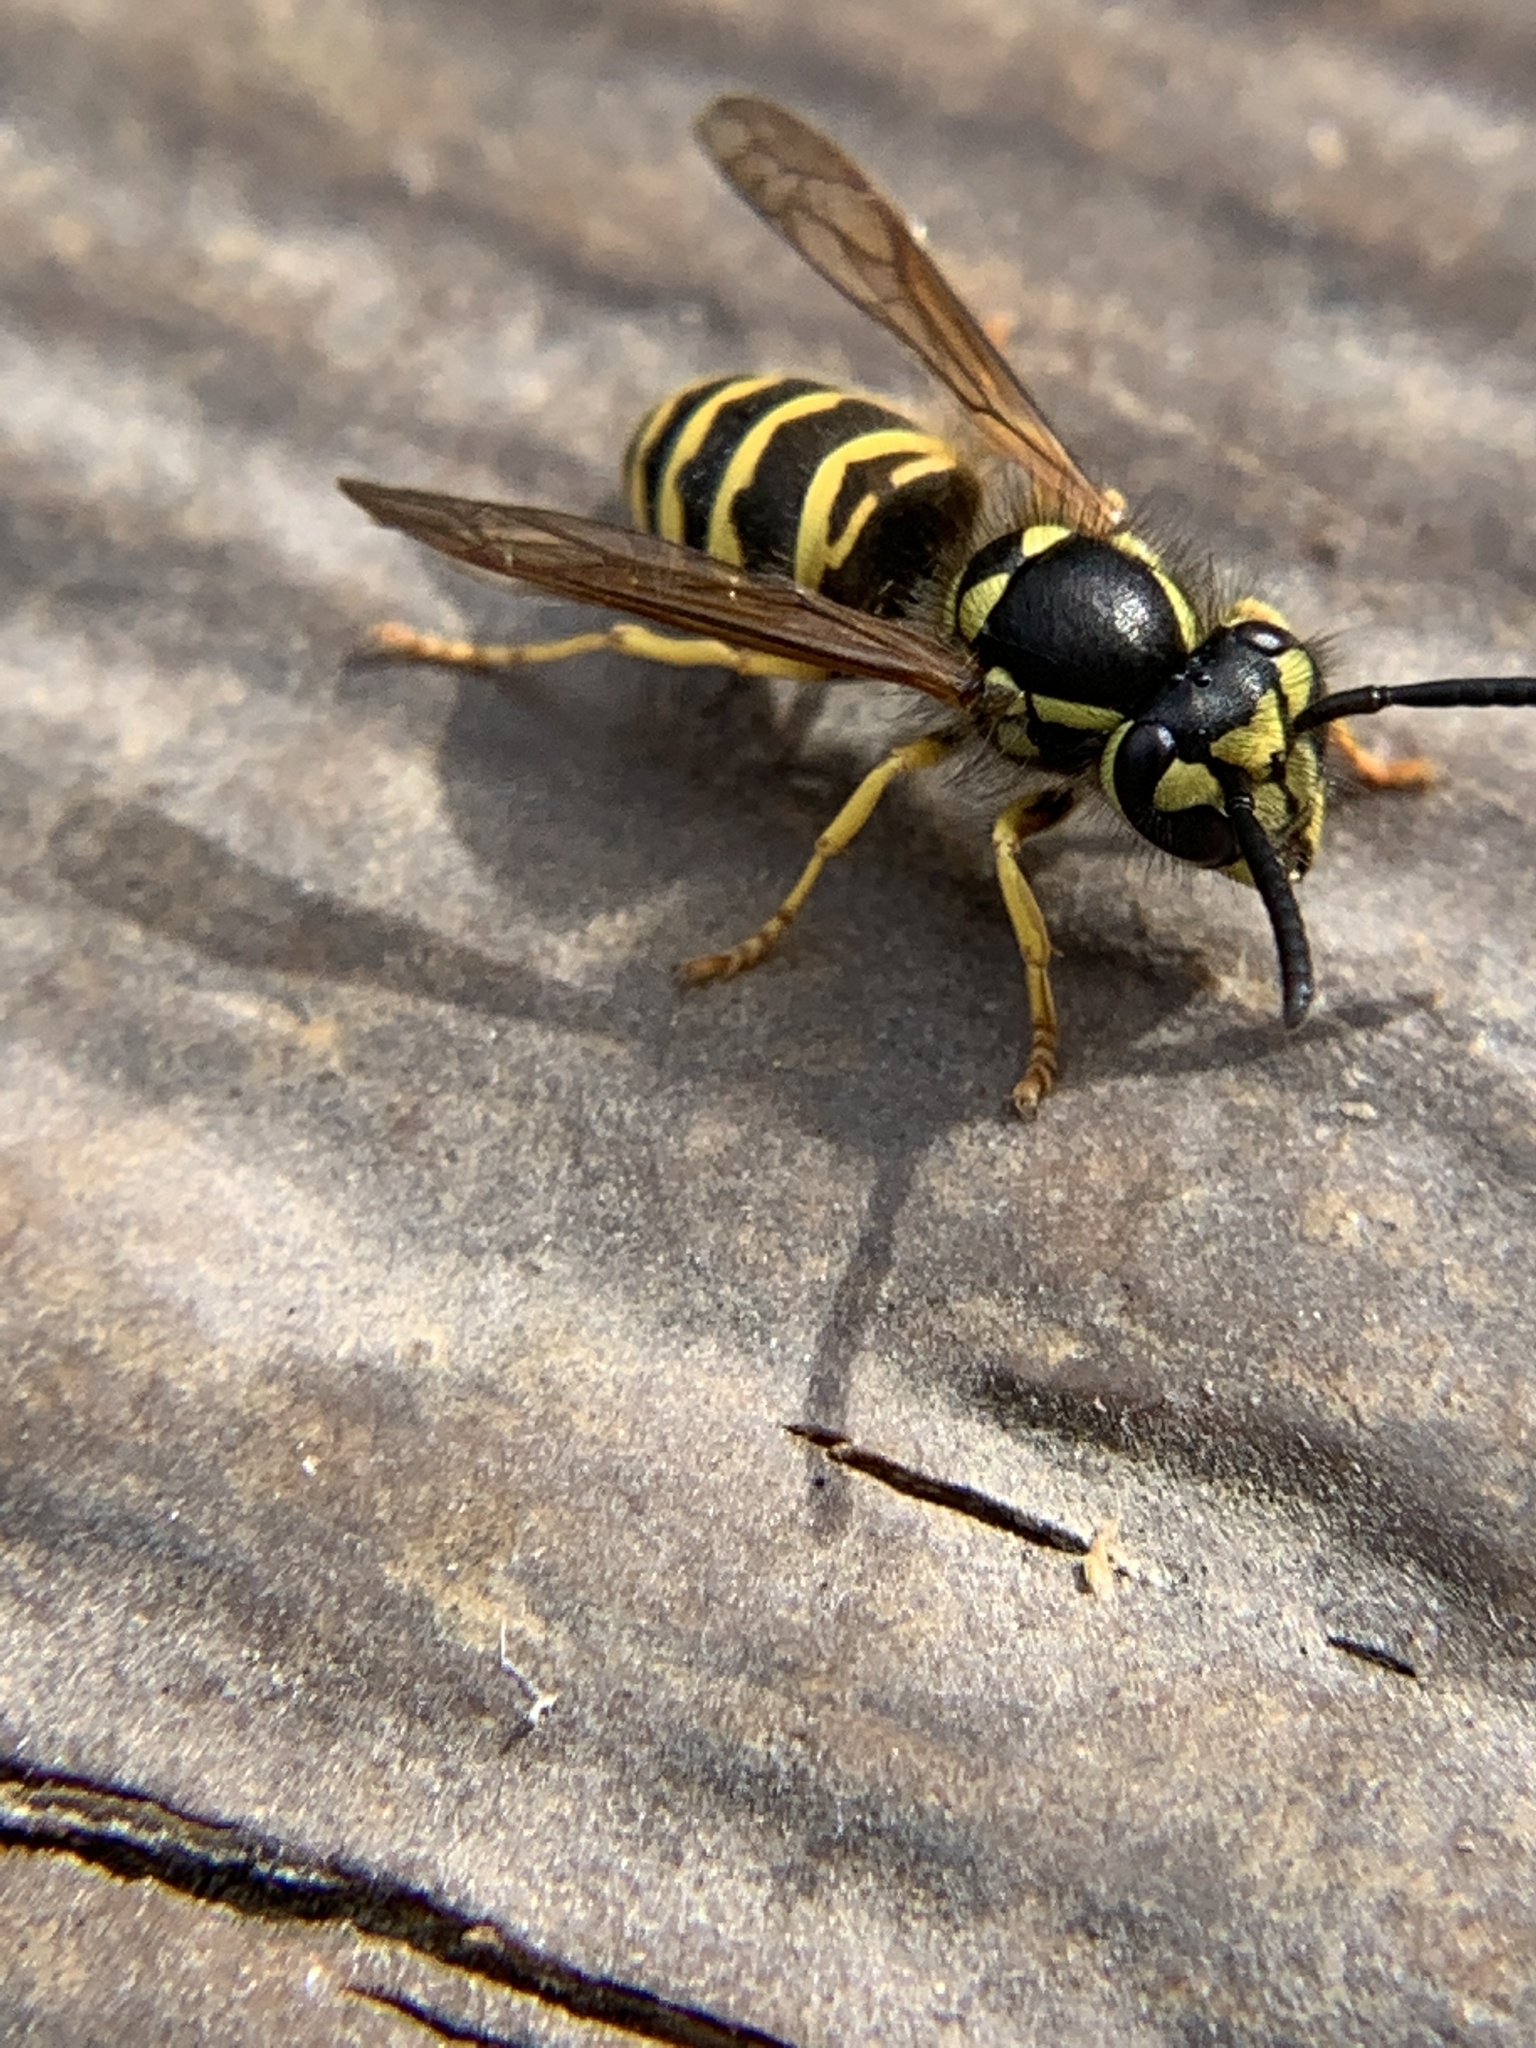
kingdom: Animalia
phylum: Arthropoda
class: Insecta
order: Hymenoptera
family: Vespidae
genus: Vespula
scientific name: Vespula maculifrons
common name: Eastern yellowjacket
